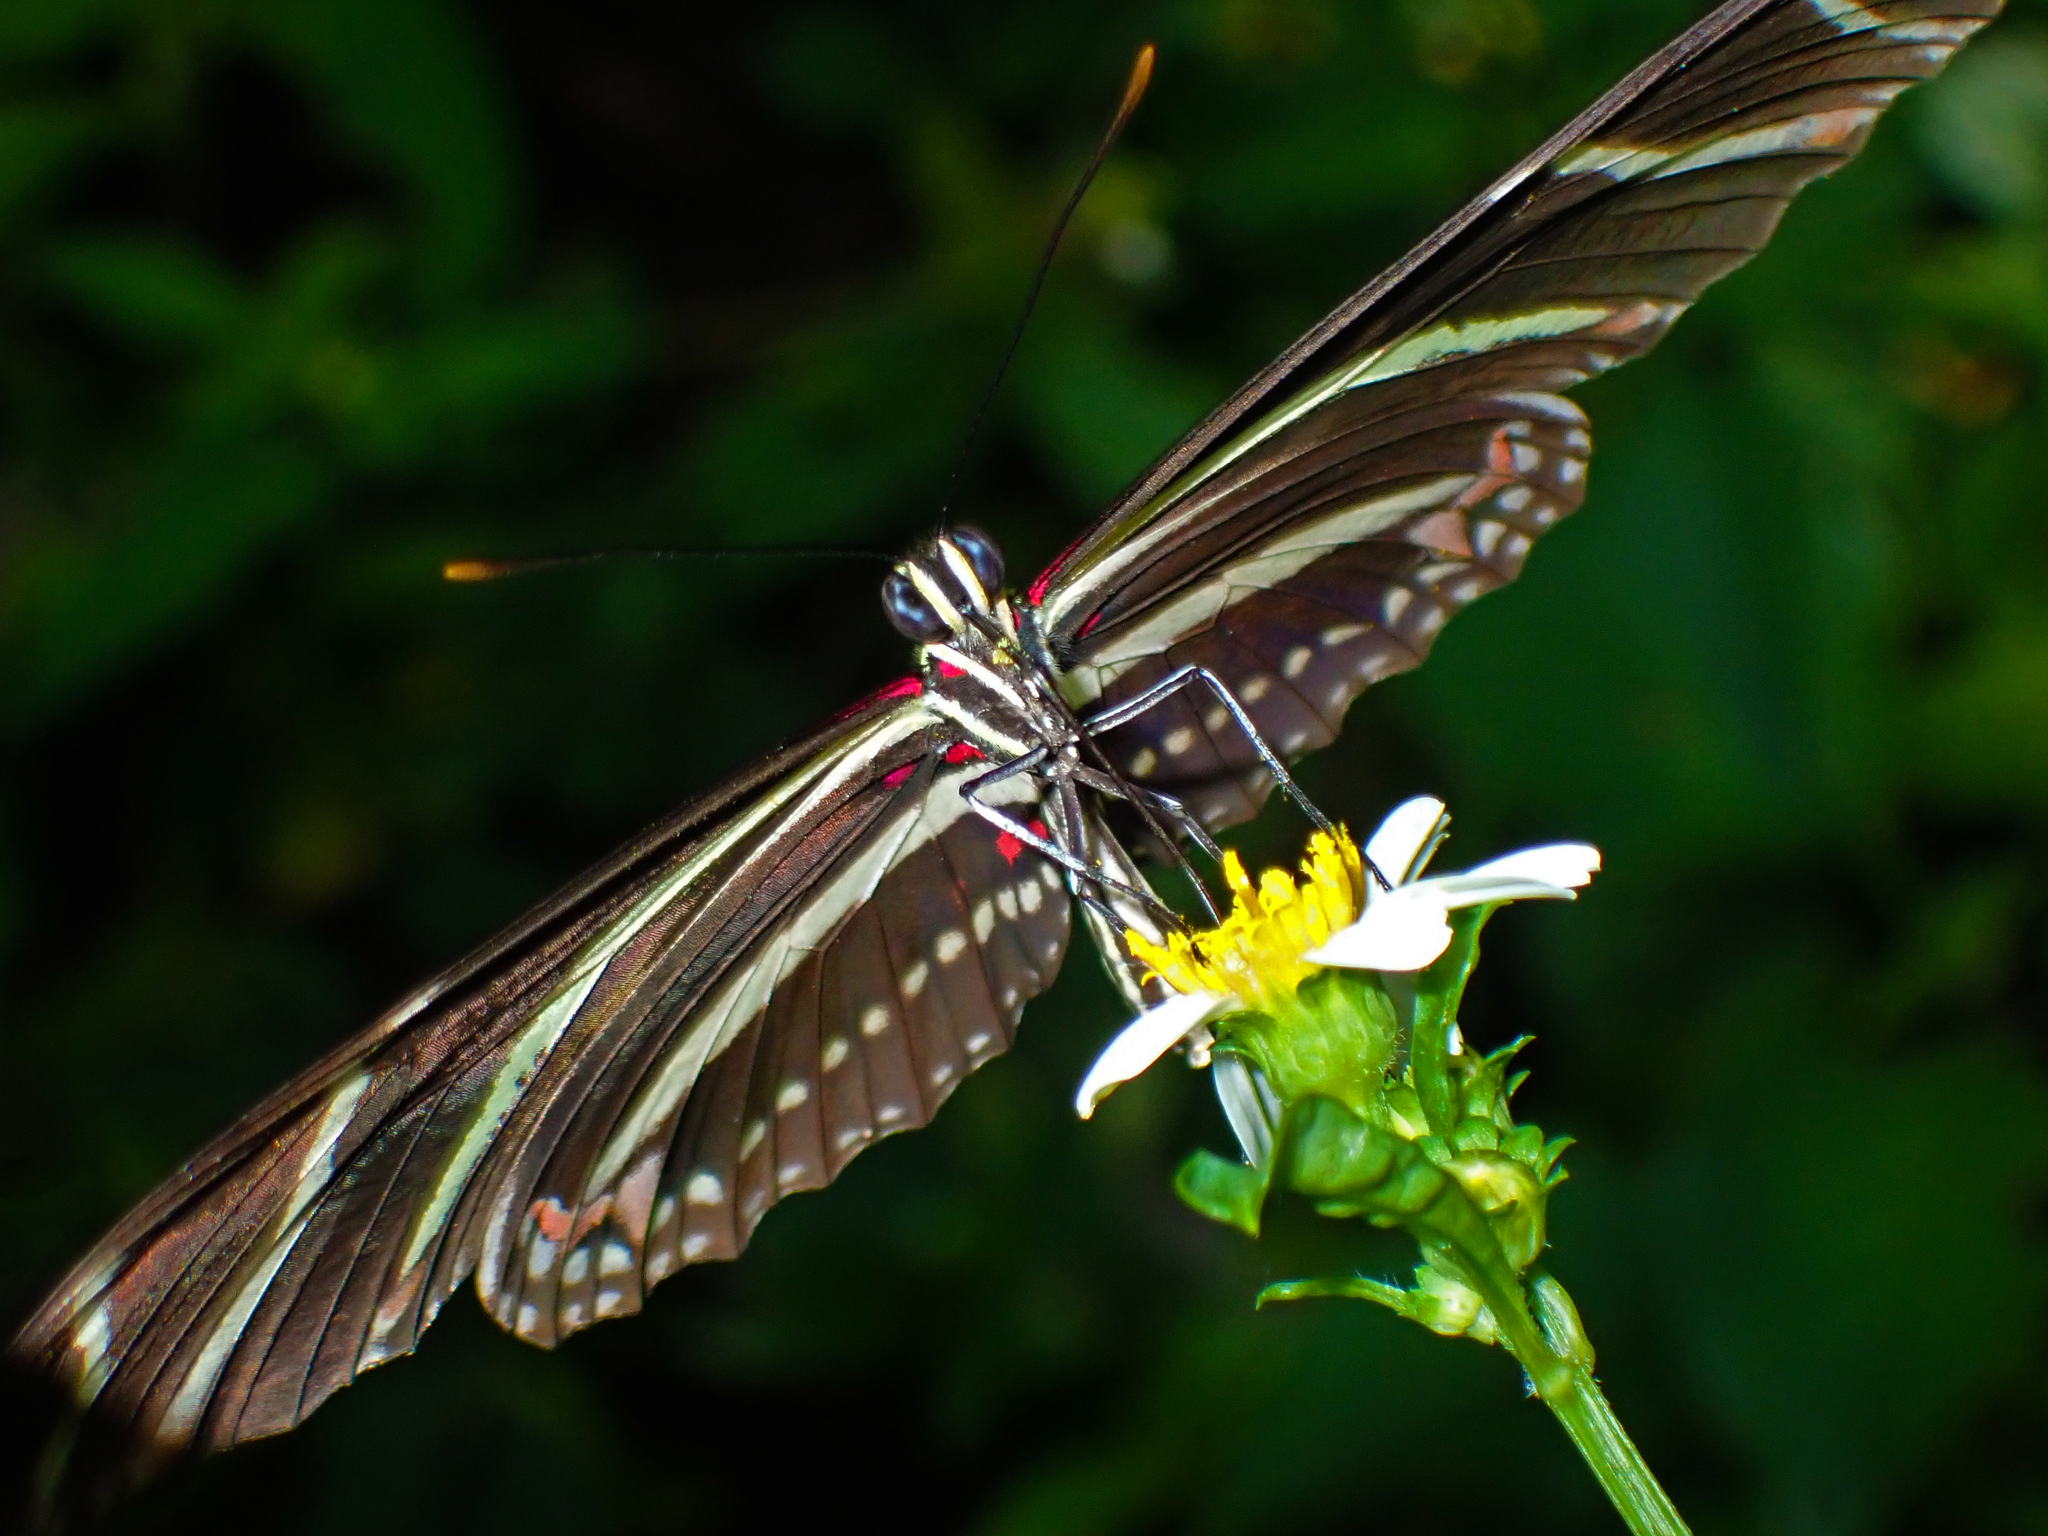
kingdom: Animalia
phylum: Arthropoda
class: Insecta
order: Lepidoptera
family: Nymphalidae
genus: Heliconius
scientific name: Heliconius charithonia
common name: Zebra long wing
